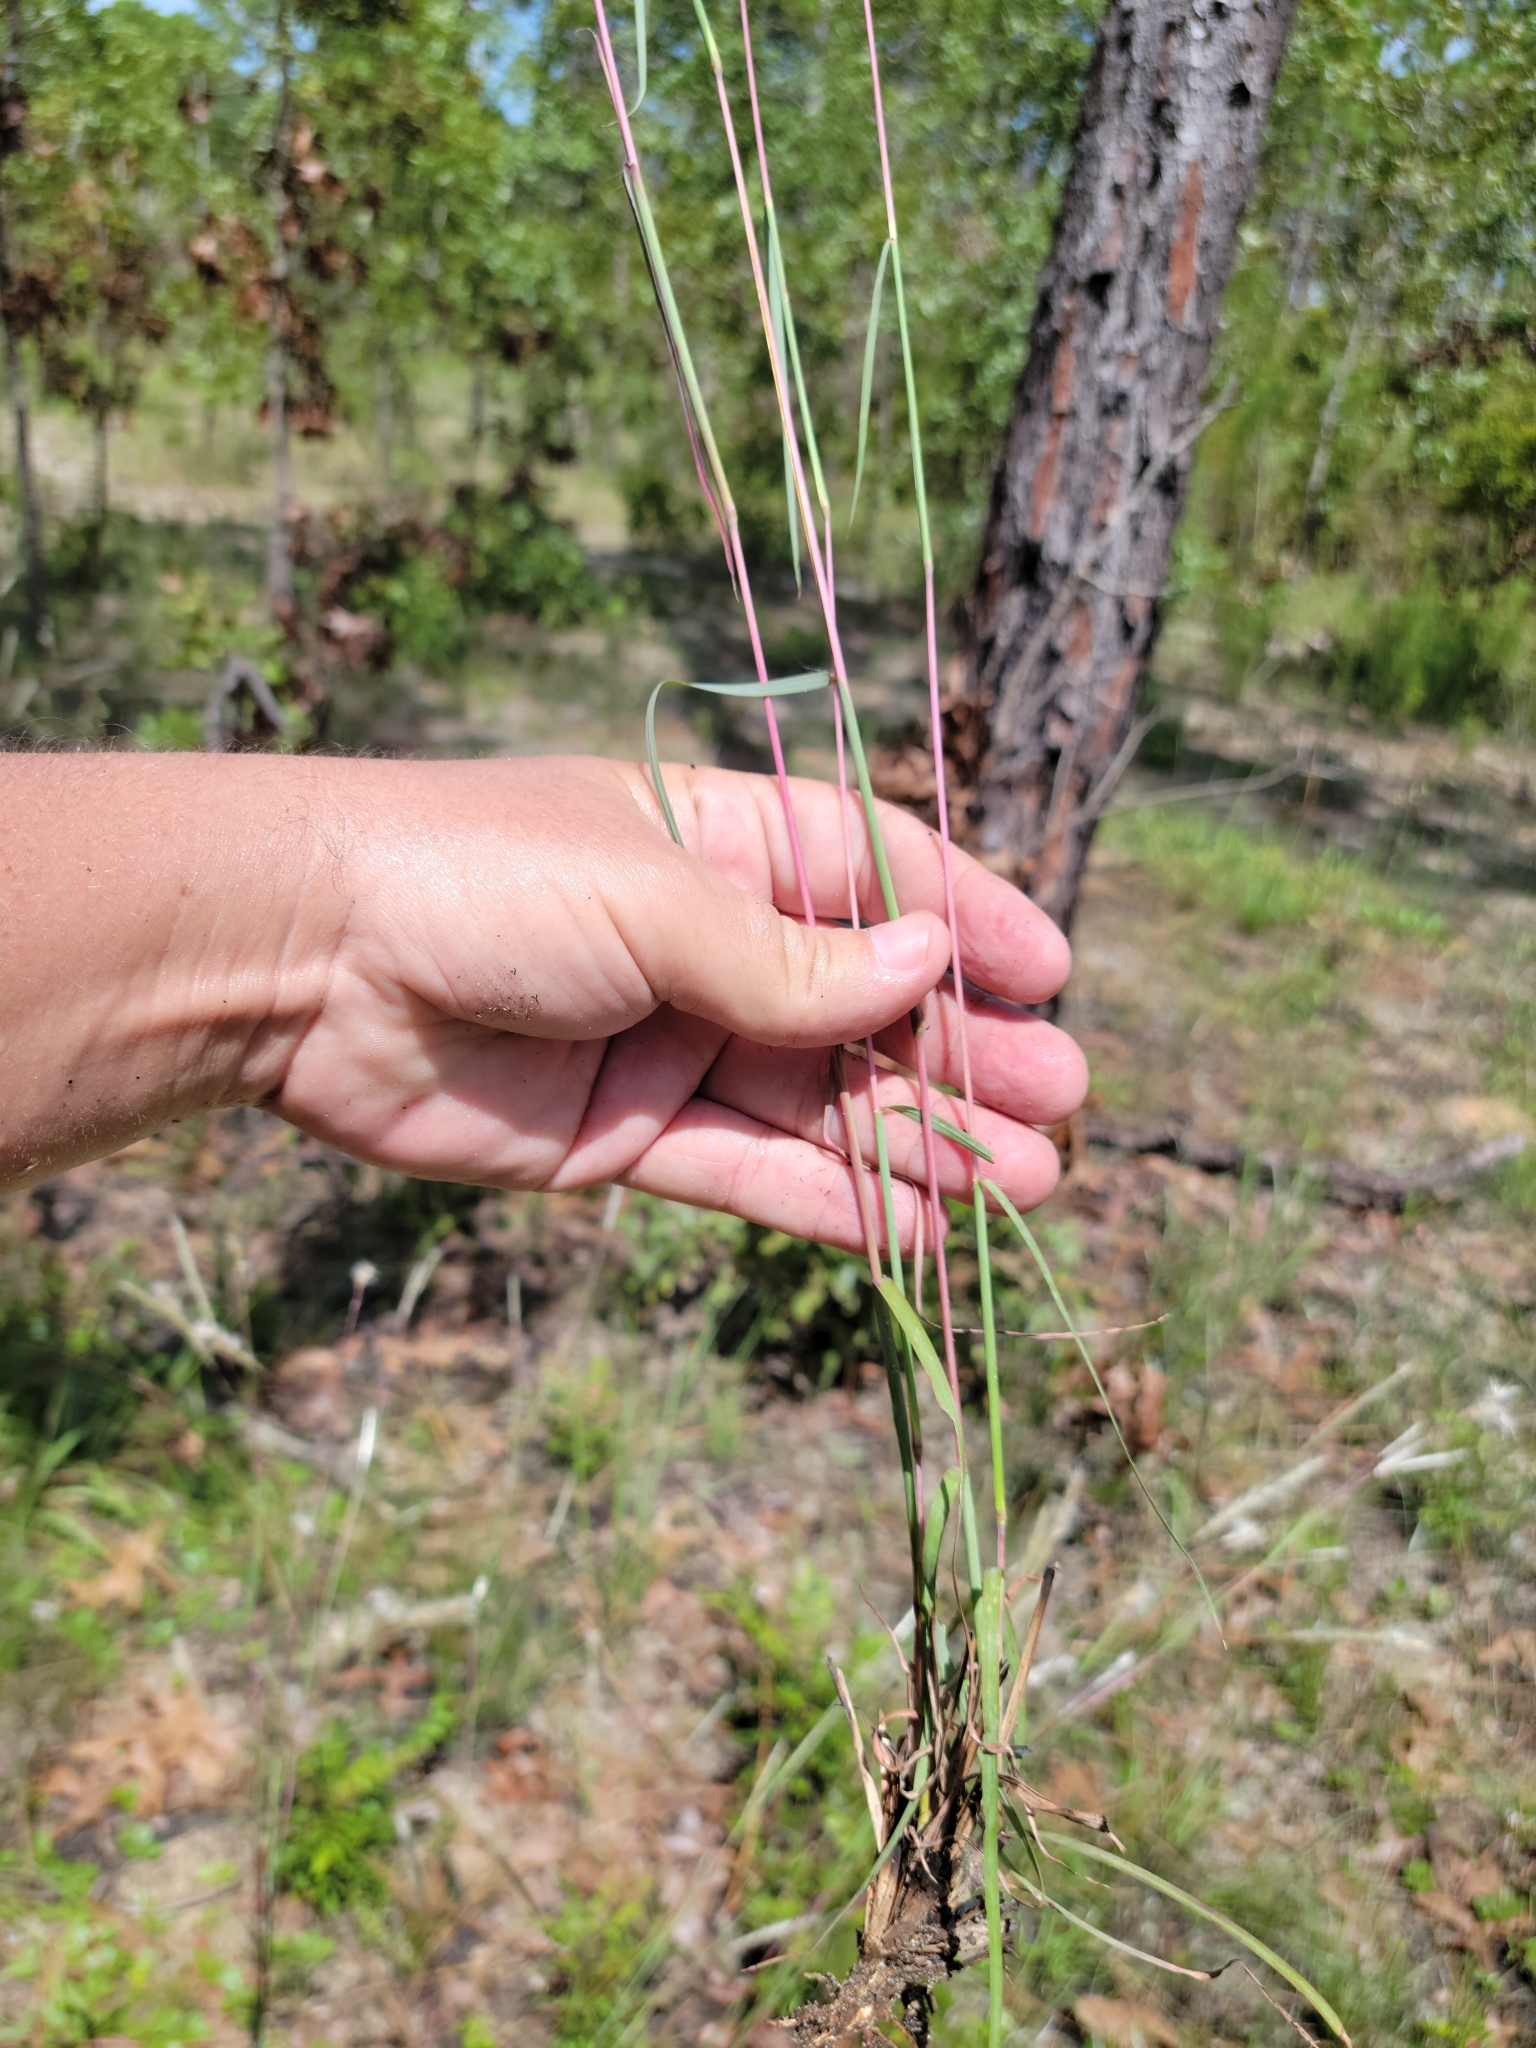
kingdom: Plantae
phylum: Tracheophyta
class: Liliopsida
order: Poales
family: Poaceae
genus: Andropogon
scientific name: Andropogon ternarius
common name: Split bluestem
